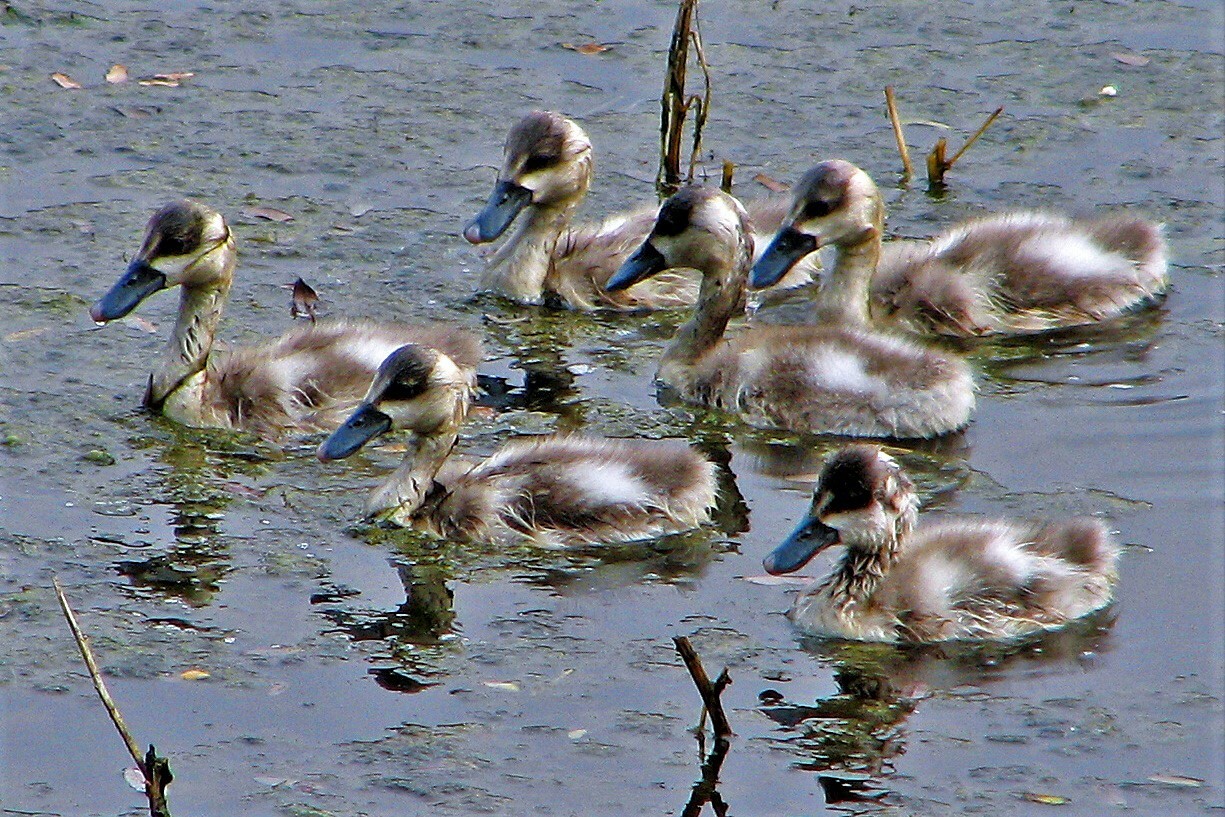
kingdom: Animalia
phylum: Chordata
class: Aves
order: Anseriformes
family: Anatidae
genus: Coscoroba
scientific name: Coscoroba coscoroba
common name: Coscoroba swan
